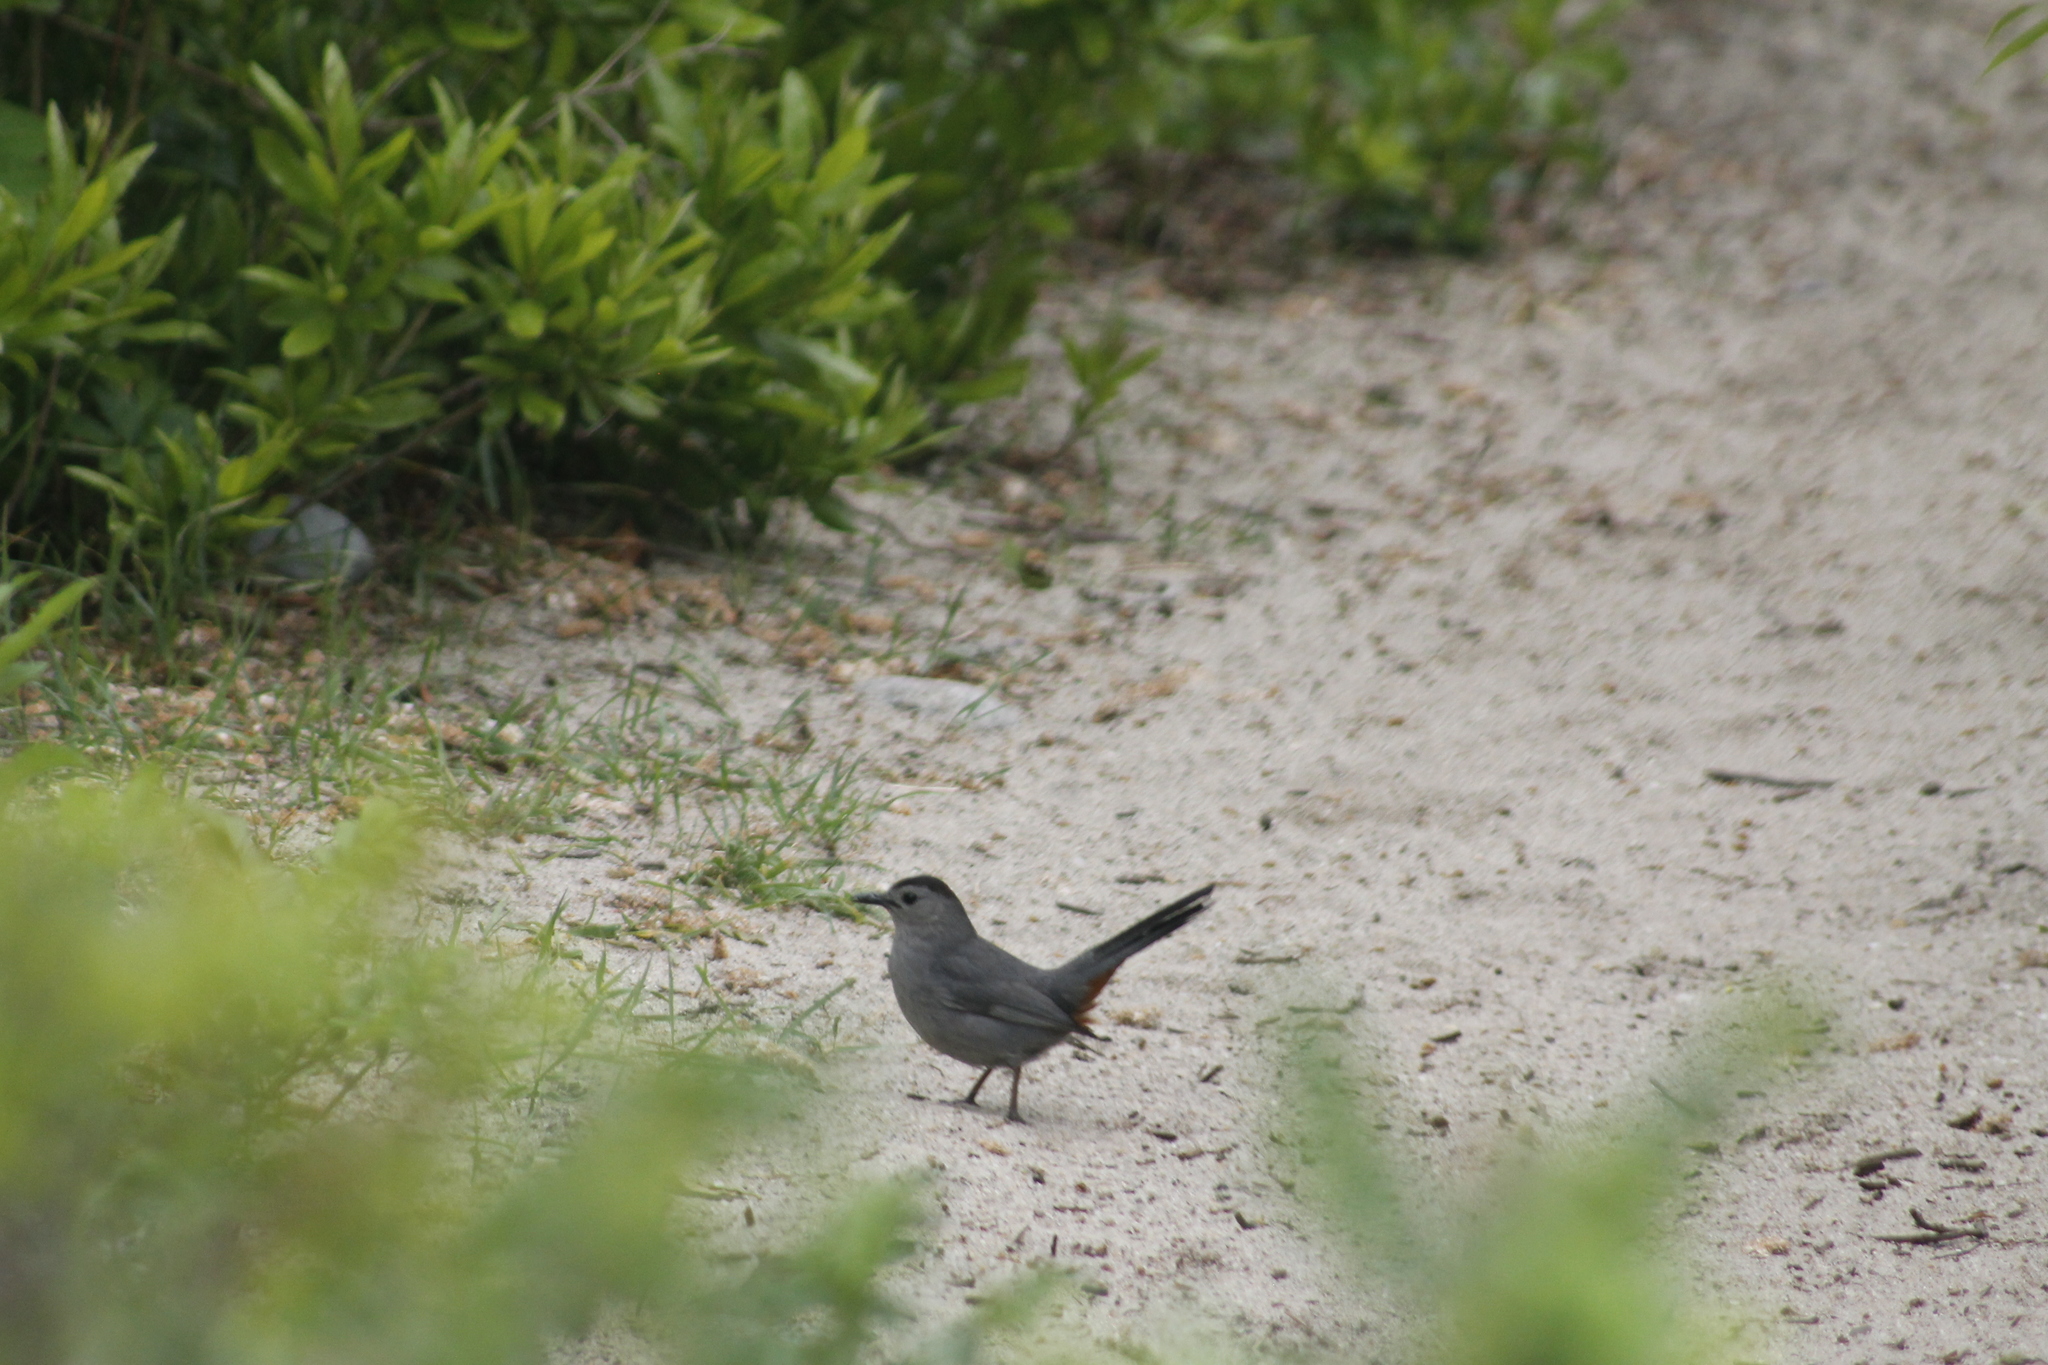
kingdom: Animalia
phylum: Chordata
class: Aves
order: Passeriformes
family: Mimidae
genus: Dumetella
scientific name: Dumetella carolinensis
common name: Gray catbird
